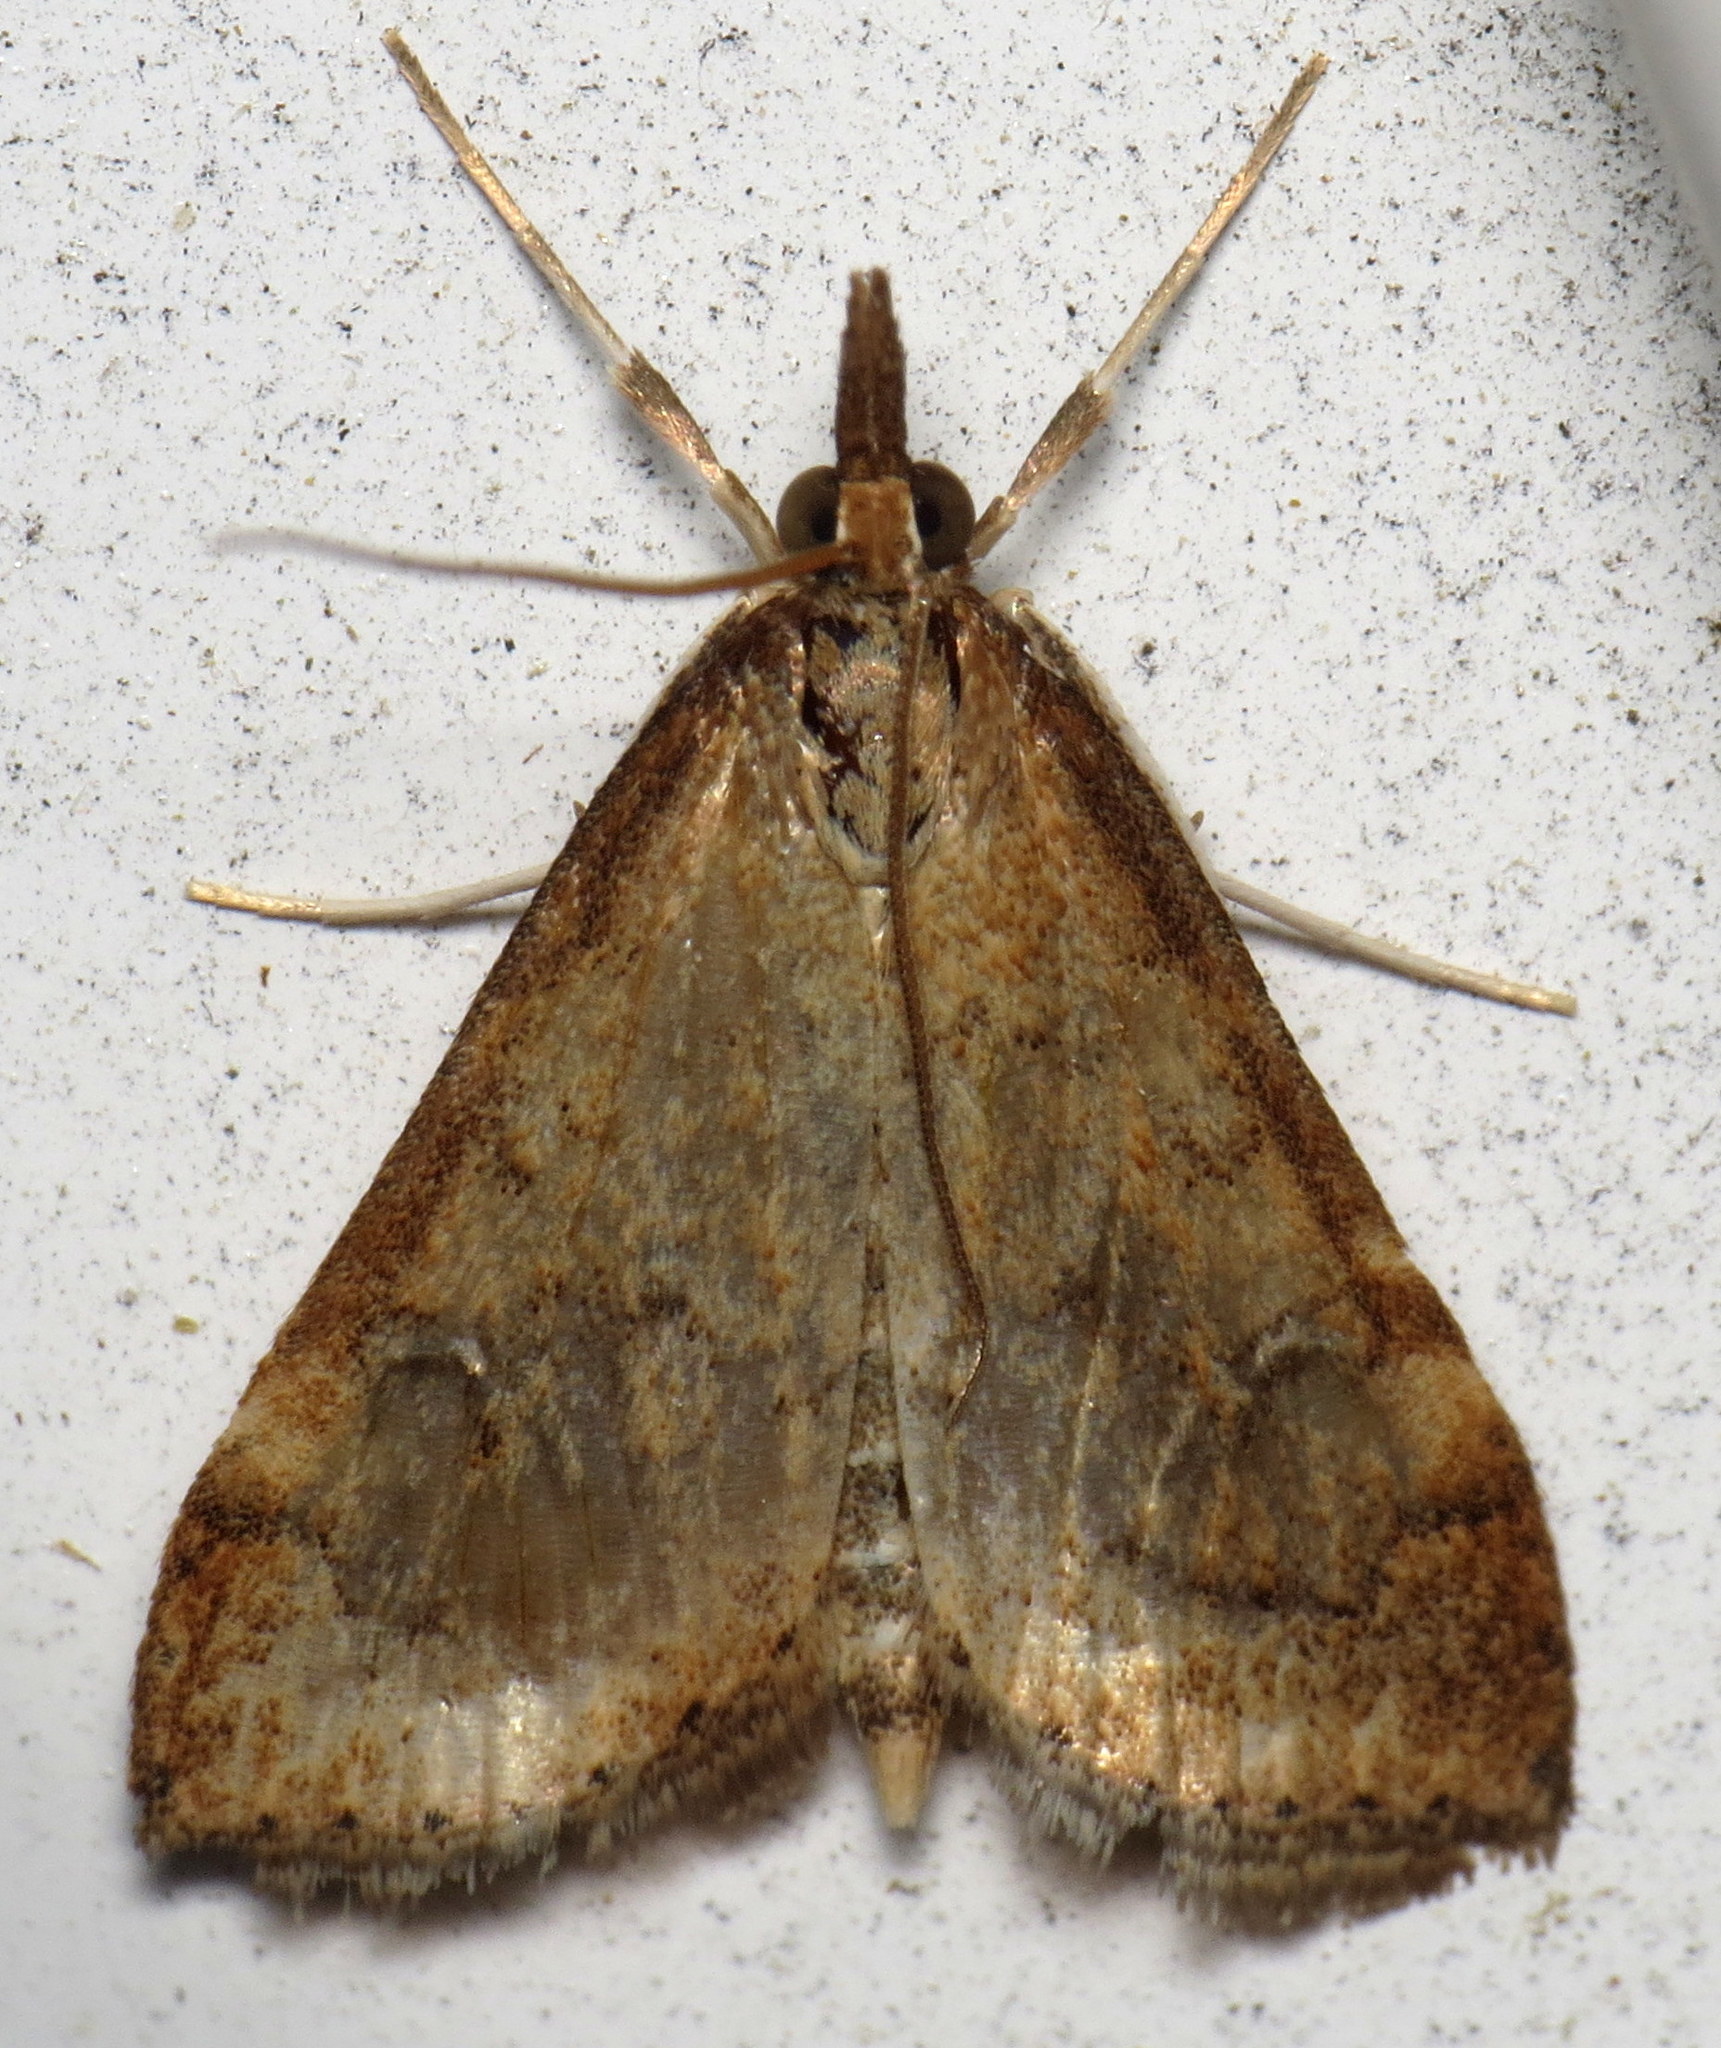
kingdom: Animalia
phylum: Arthropoda
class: Insecta
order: Lepidoptera
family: Crambidae
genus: Udea
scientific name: Udea rubigalis
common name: Celery leaftier moth
